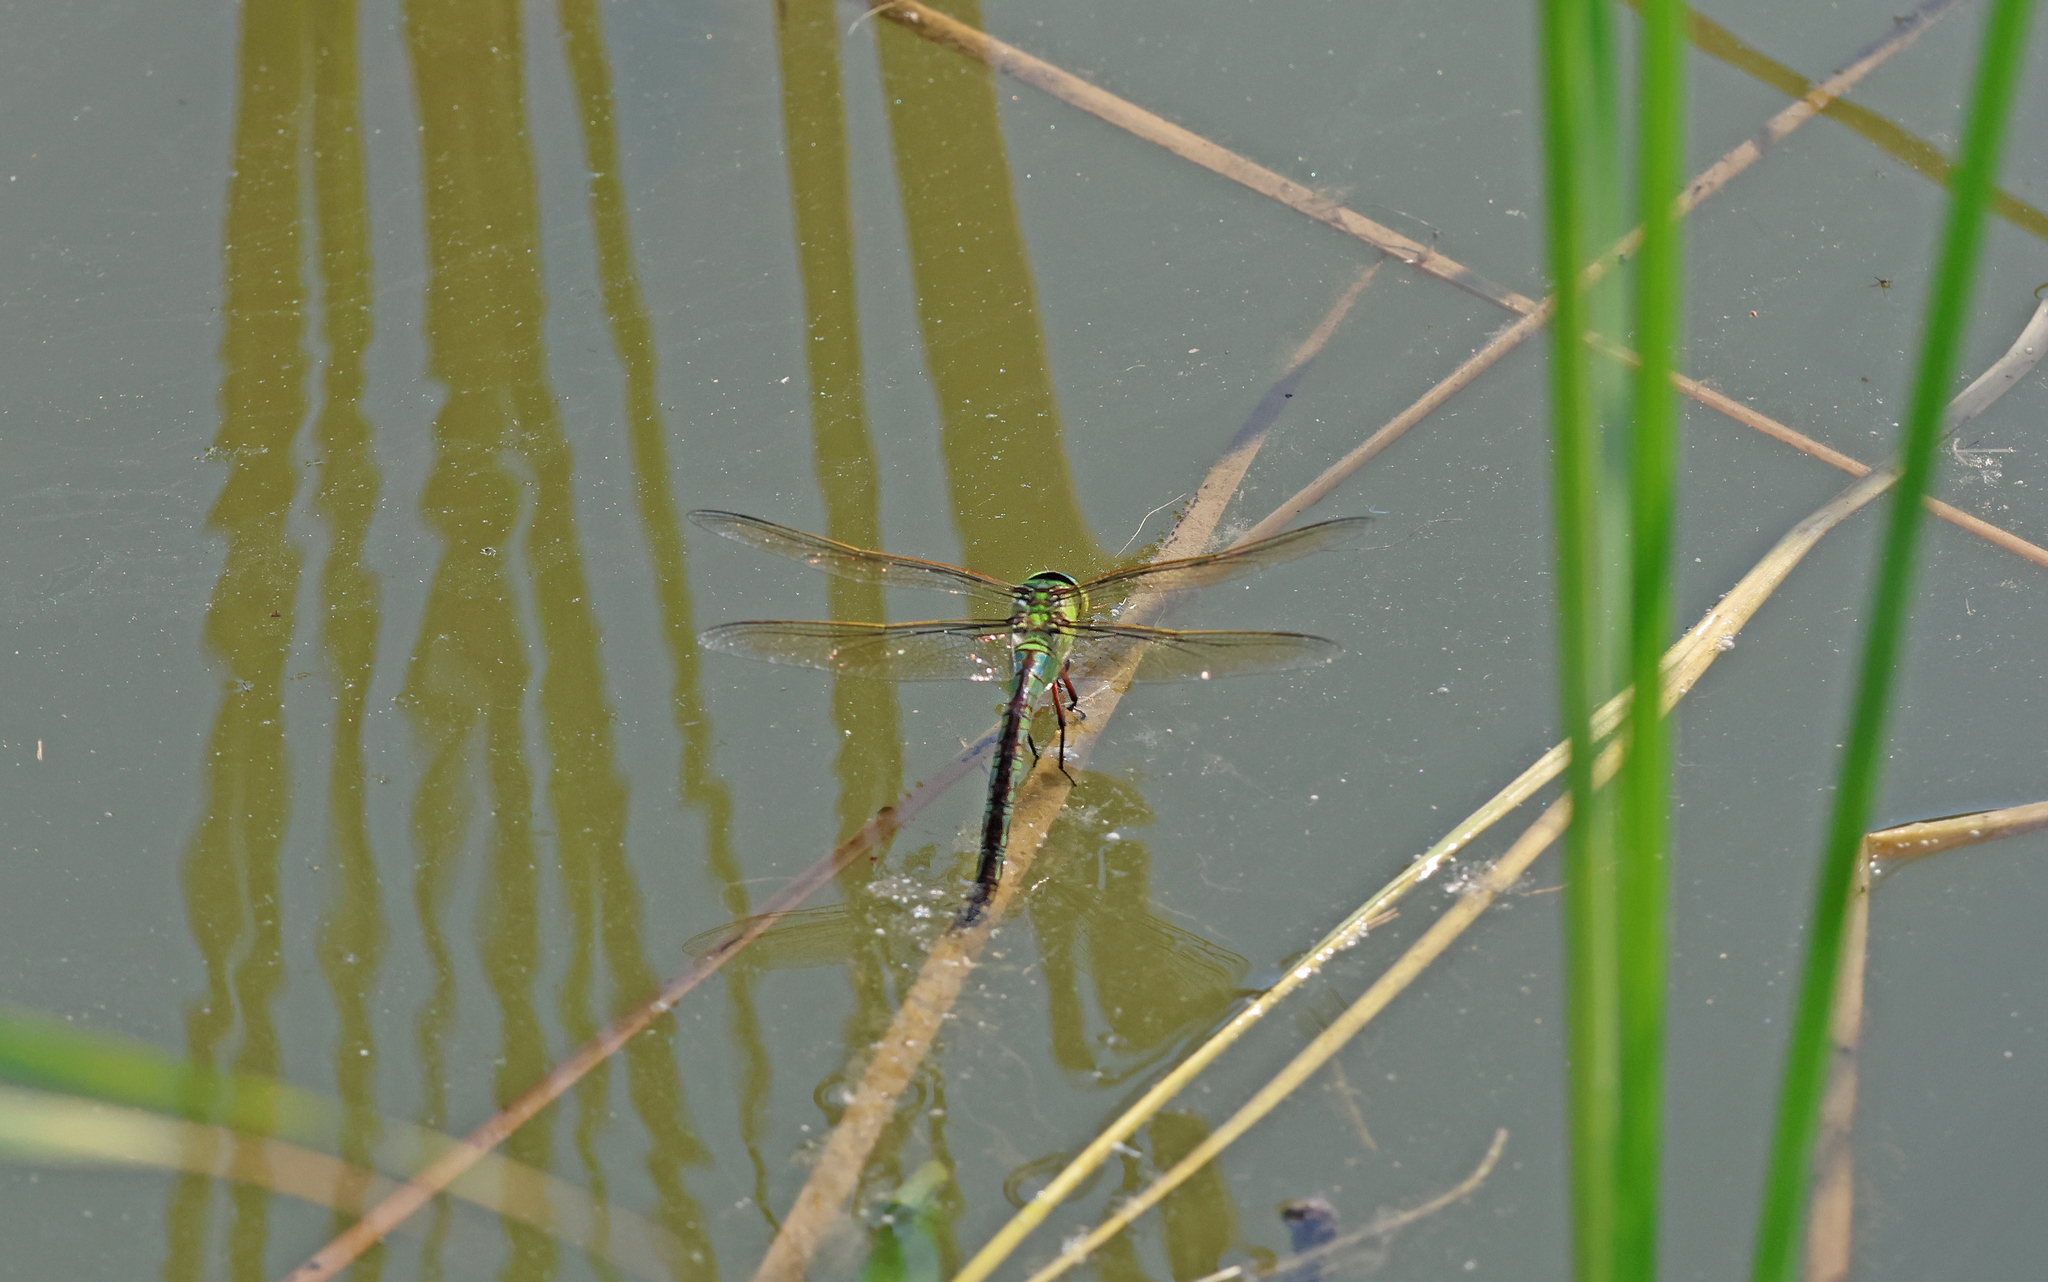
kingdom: Animalia
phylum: Arthropoda
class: Insecta
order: Odonata
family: Aeshnidae
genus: Anax
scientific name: Anax imperator
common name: Emperor dragonfly
